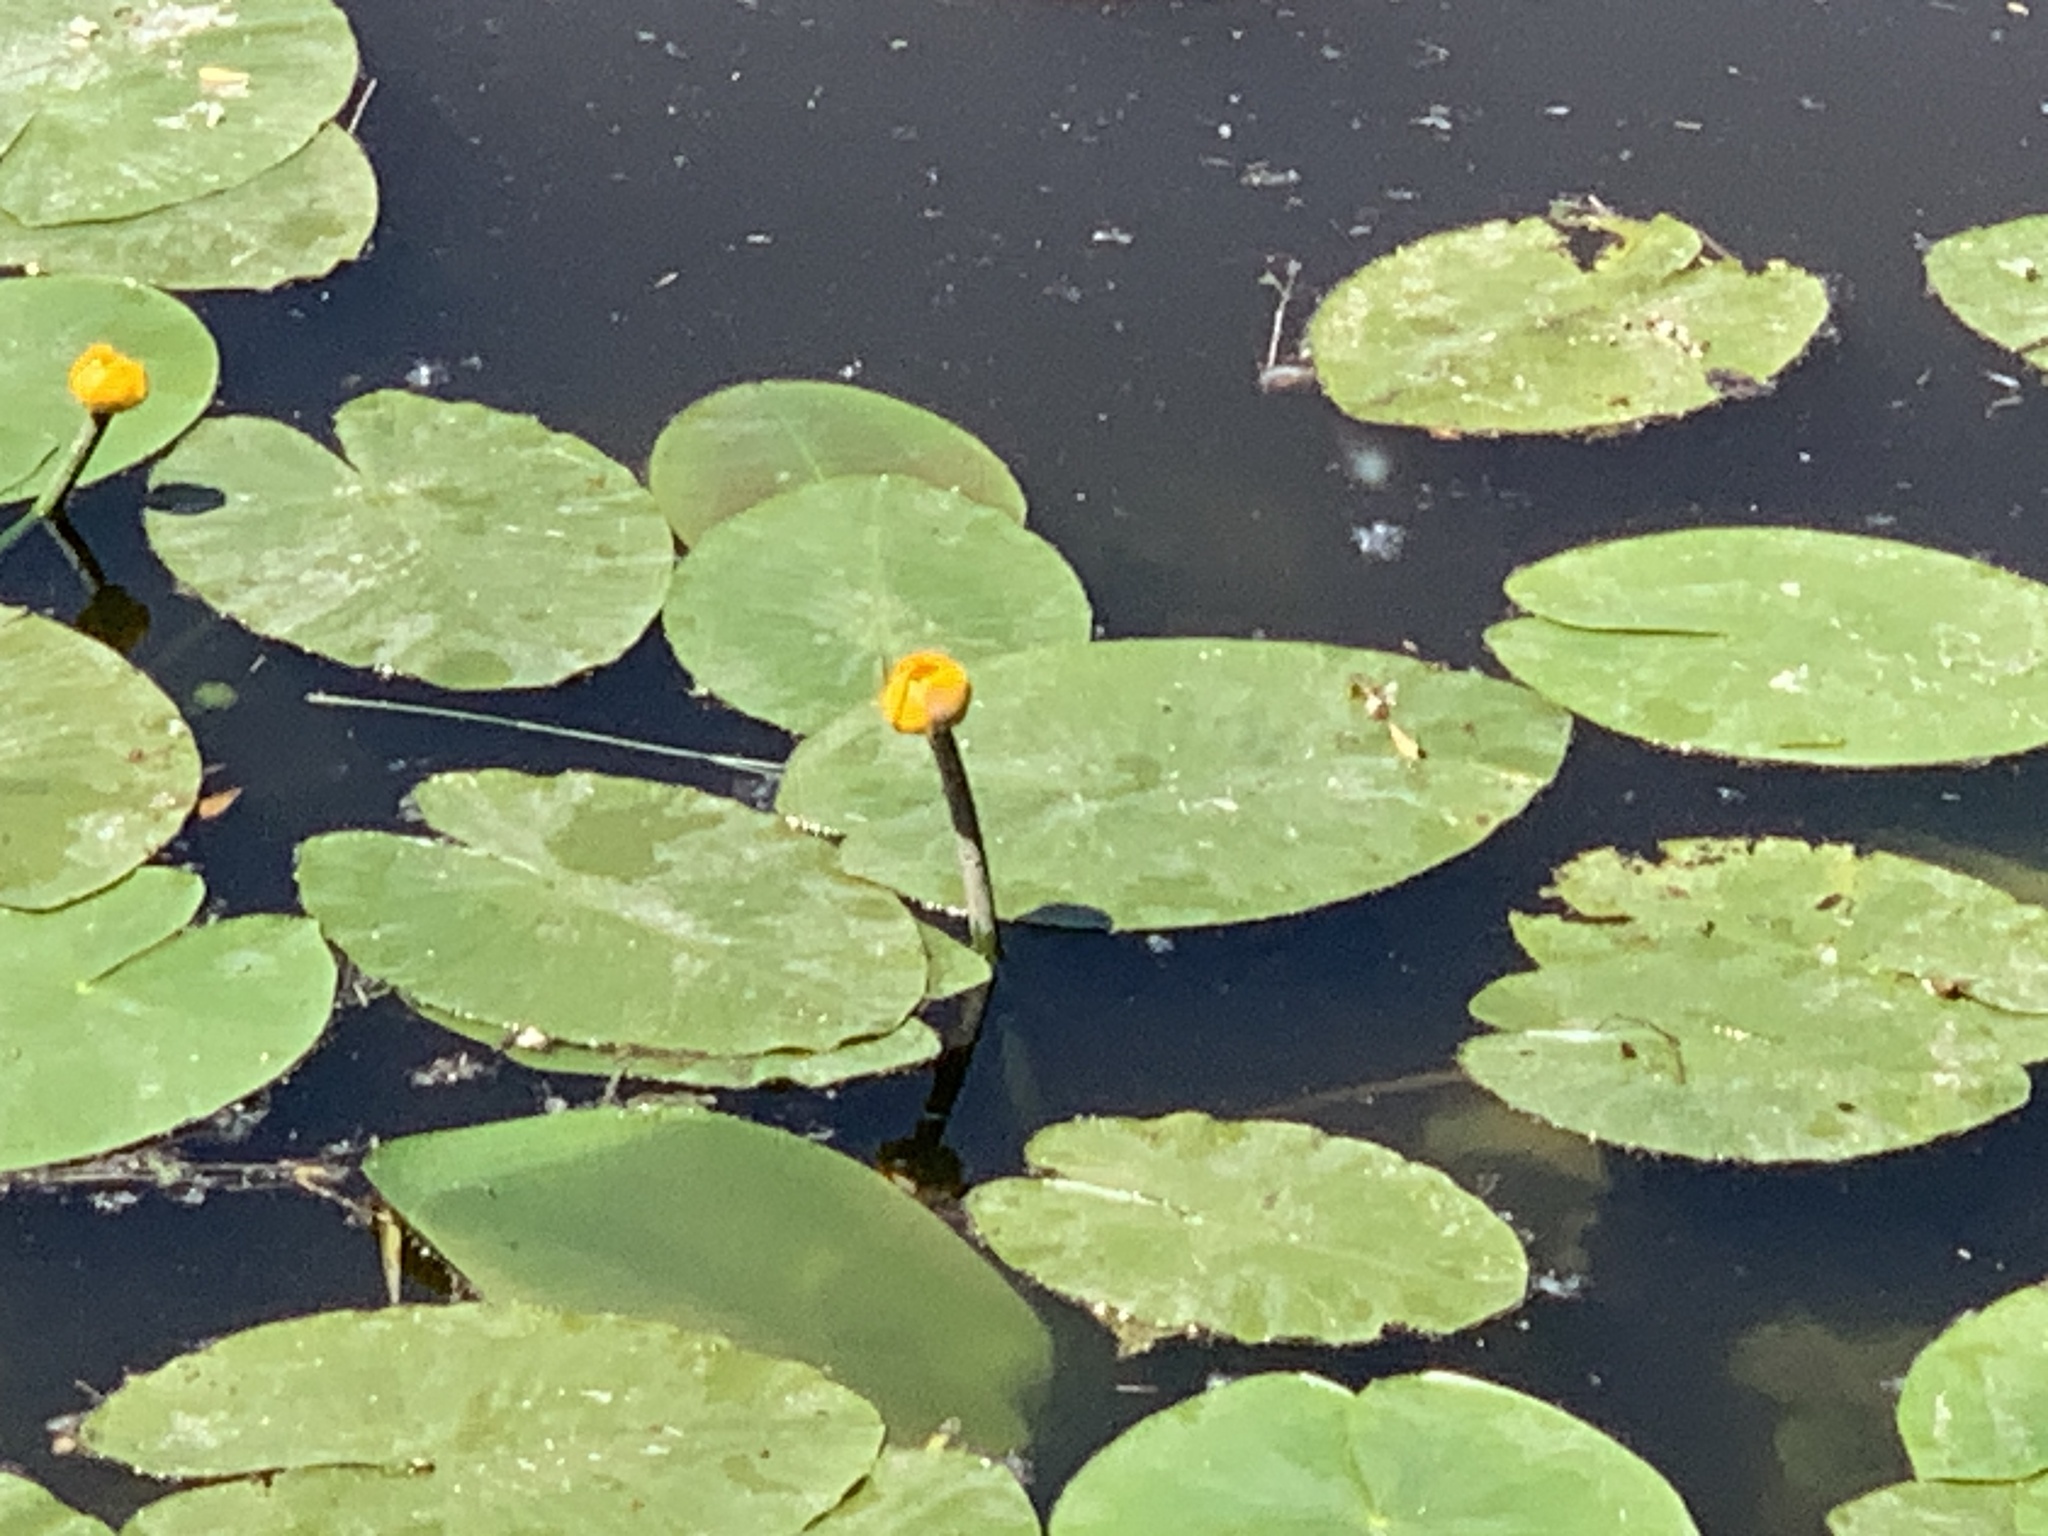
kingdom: Plantae
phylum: Tracheophyta
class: Magnoliopsida
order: Nymphaeales
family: Nymphaeaceae
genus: Nuphar
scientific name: Nuphar lutea
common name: Yellow water-lily
